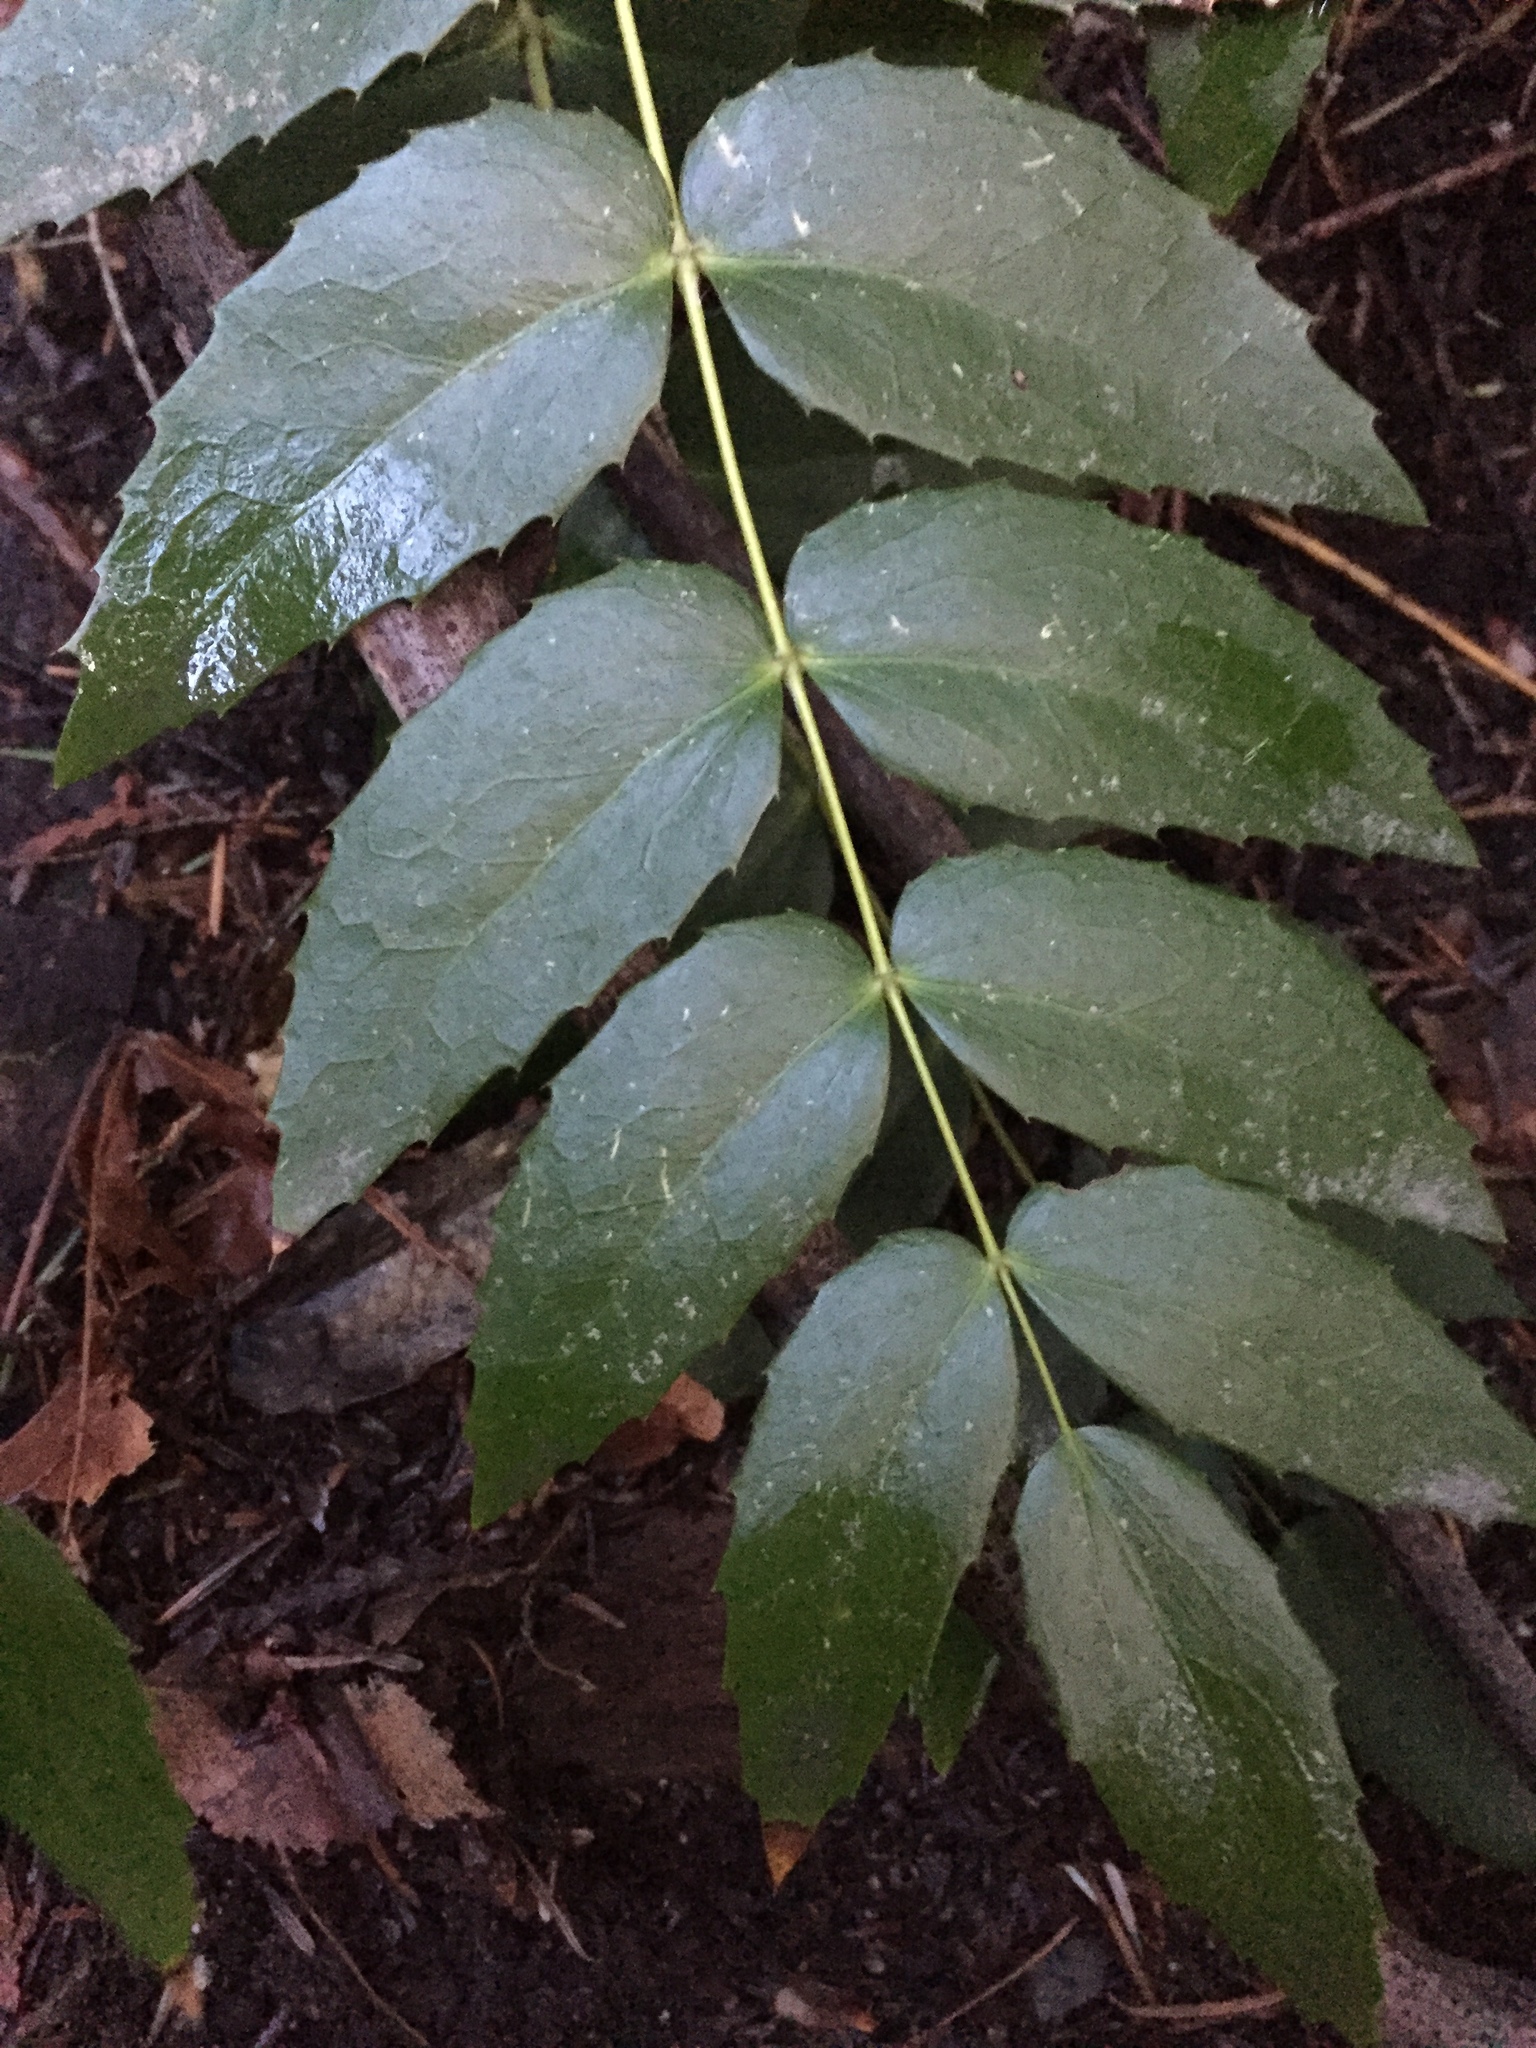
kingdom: Plantae
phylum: Tracheophyta
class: Magnoliopsida
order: Ranunculales
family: Berberidaceae
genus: Mahonia
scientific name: Mahonia nervosa
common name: Cascade oregon-grape
